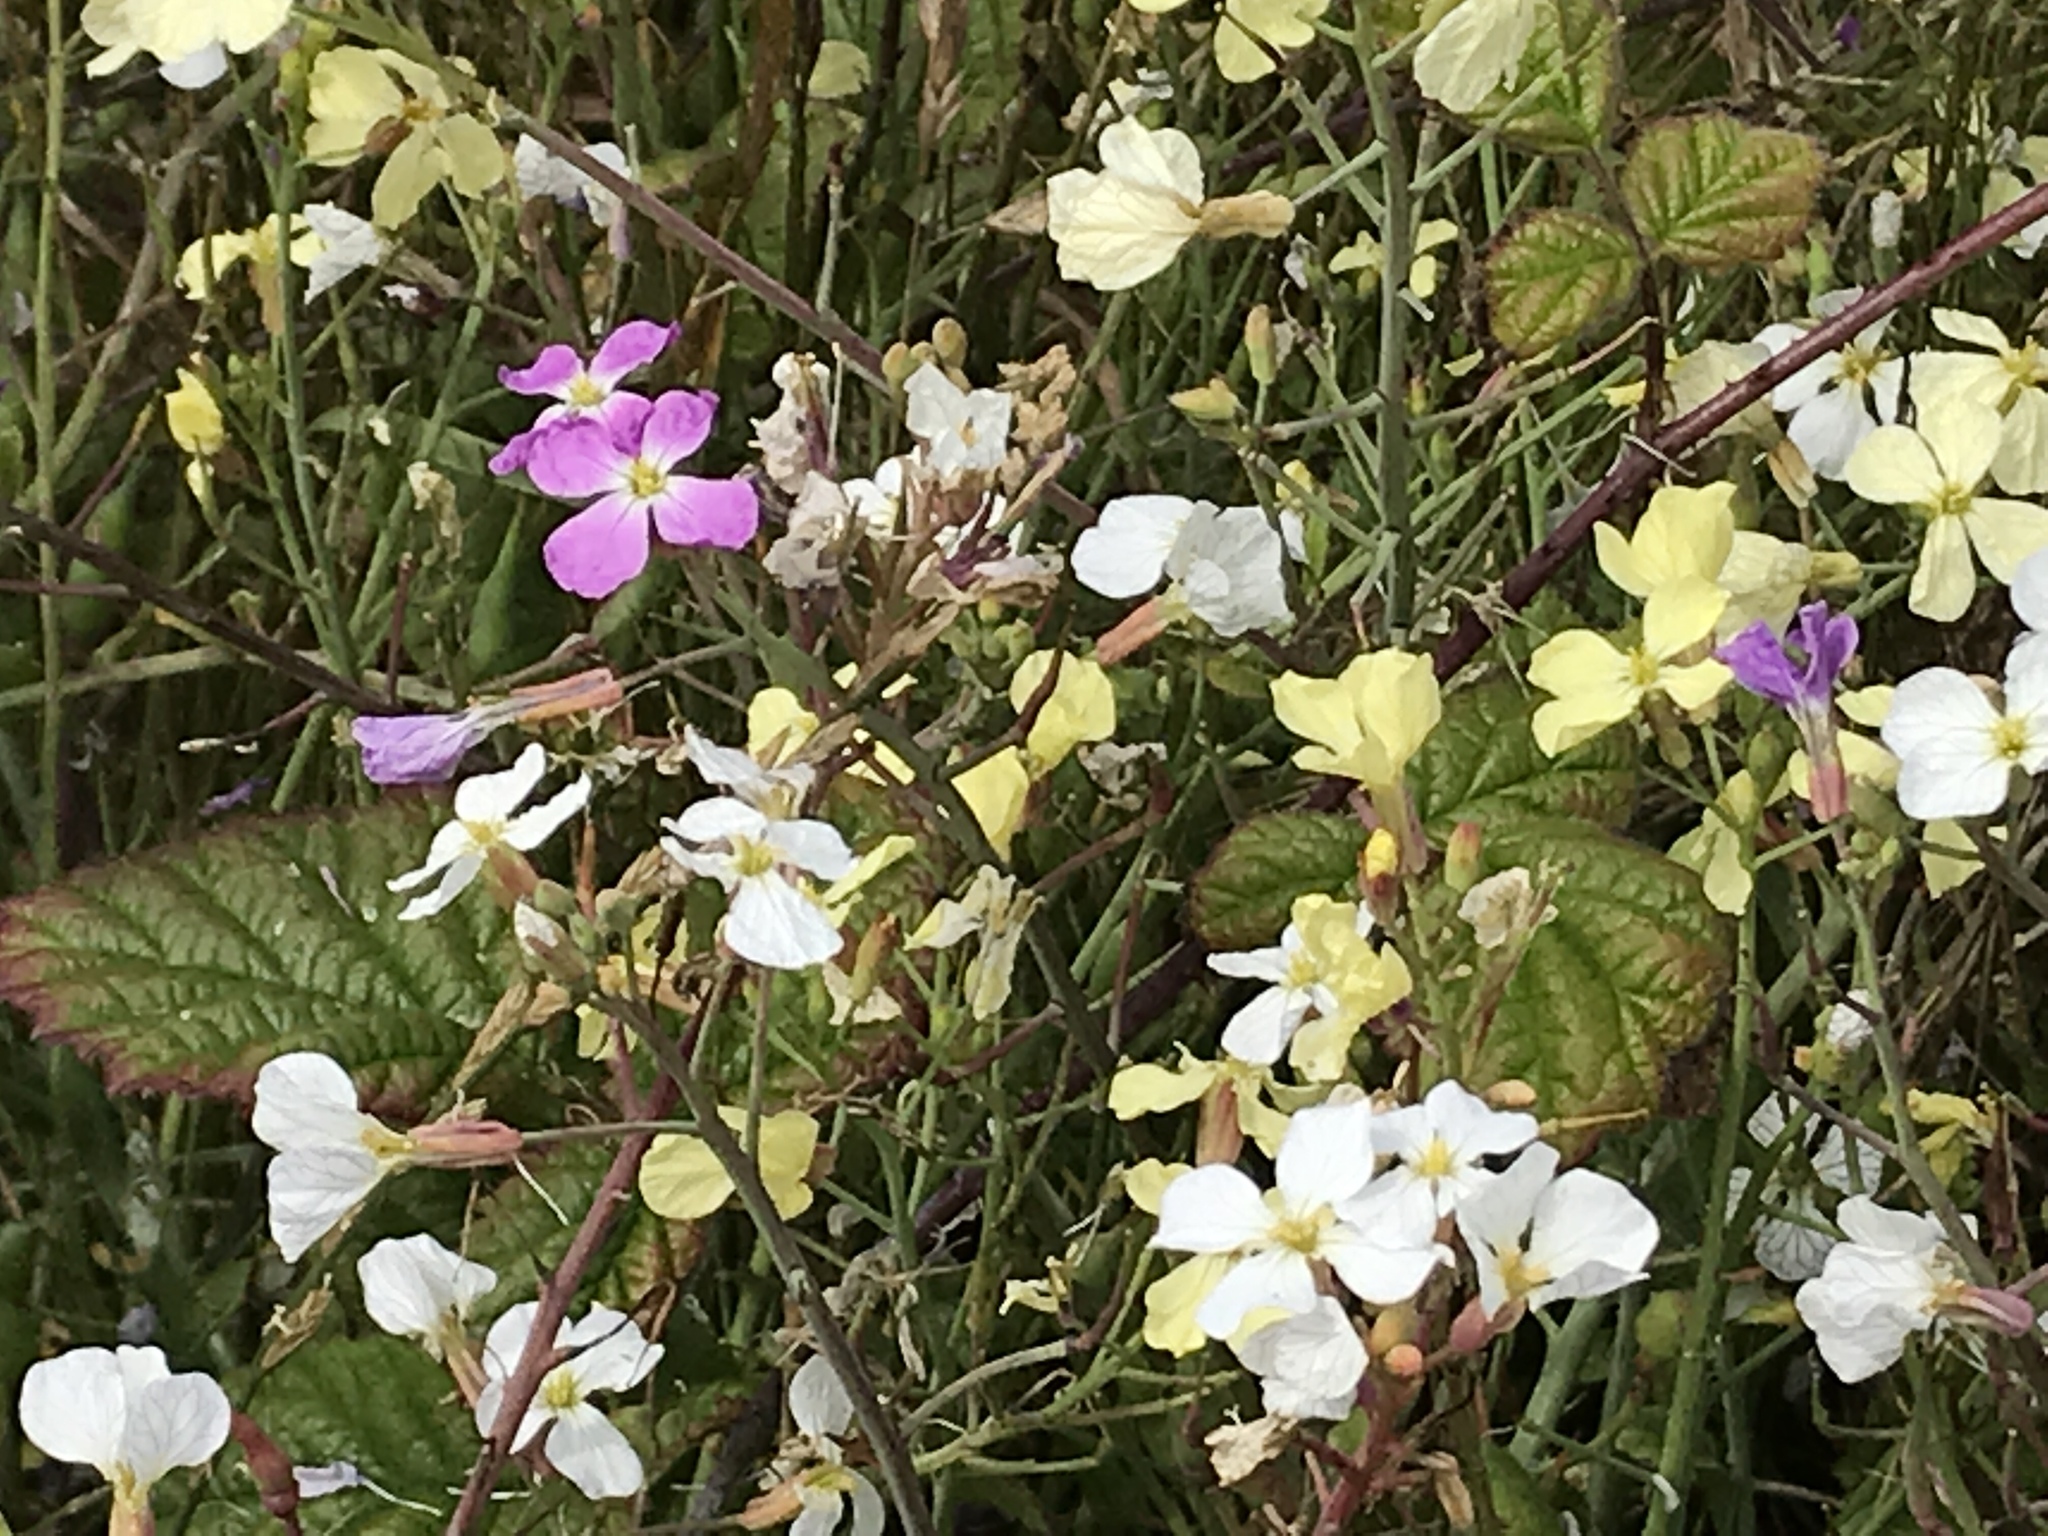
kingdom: Plantae
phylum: Tracheophyta
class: Magnoliopsida
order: Brassicales
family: Brassicaceae
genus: Raphanus
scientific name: Raphanus sativus
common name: Cultivated radish
